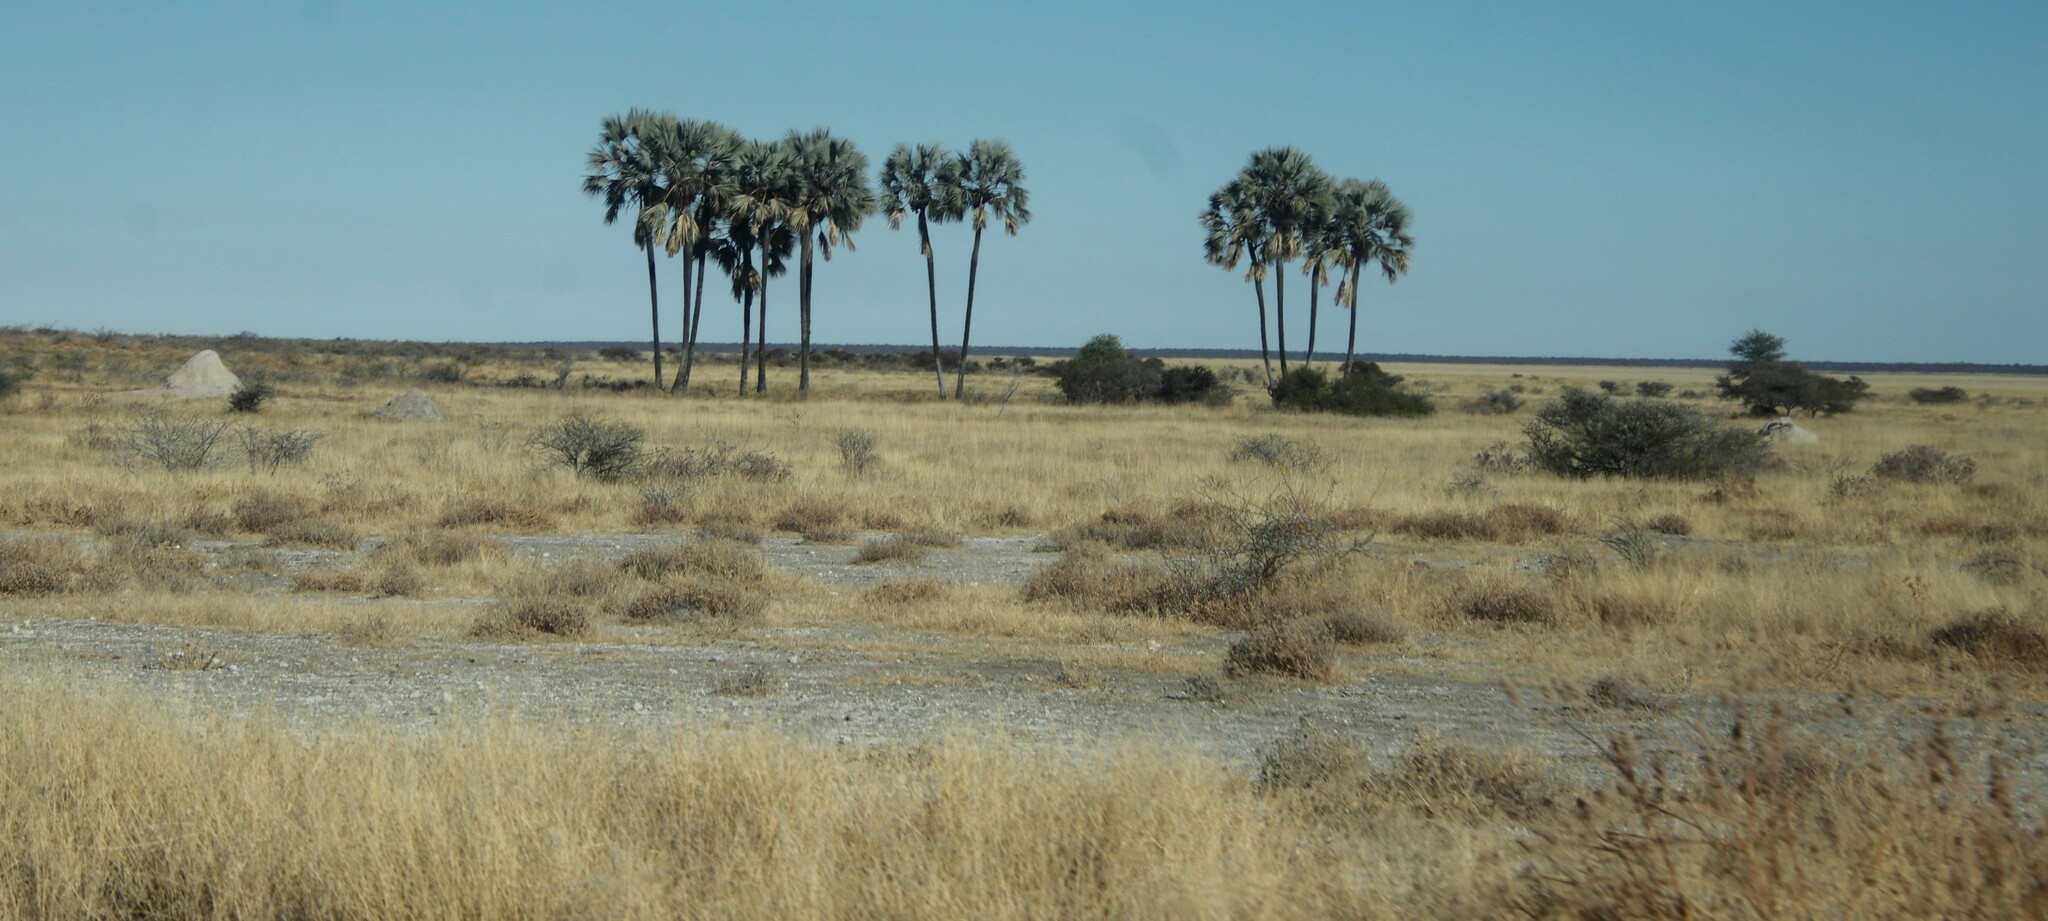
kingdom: Plantae
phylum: Tracheophyta
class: Liliopsida
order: Arecales
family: Arecaceae
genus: Hyphaene
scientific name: Hyphaene petersiana
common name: African ivory nut palm
